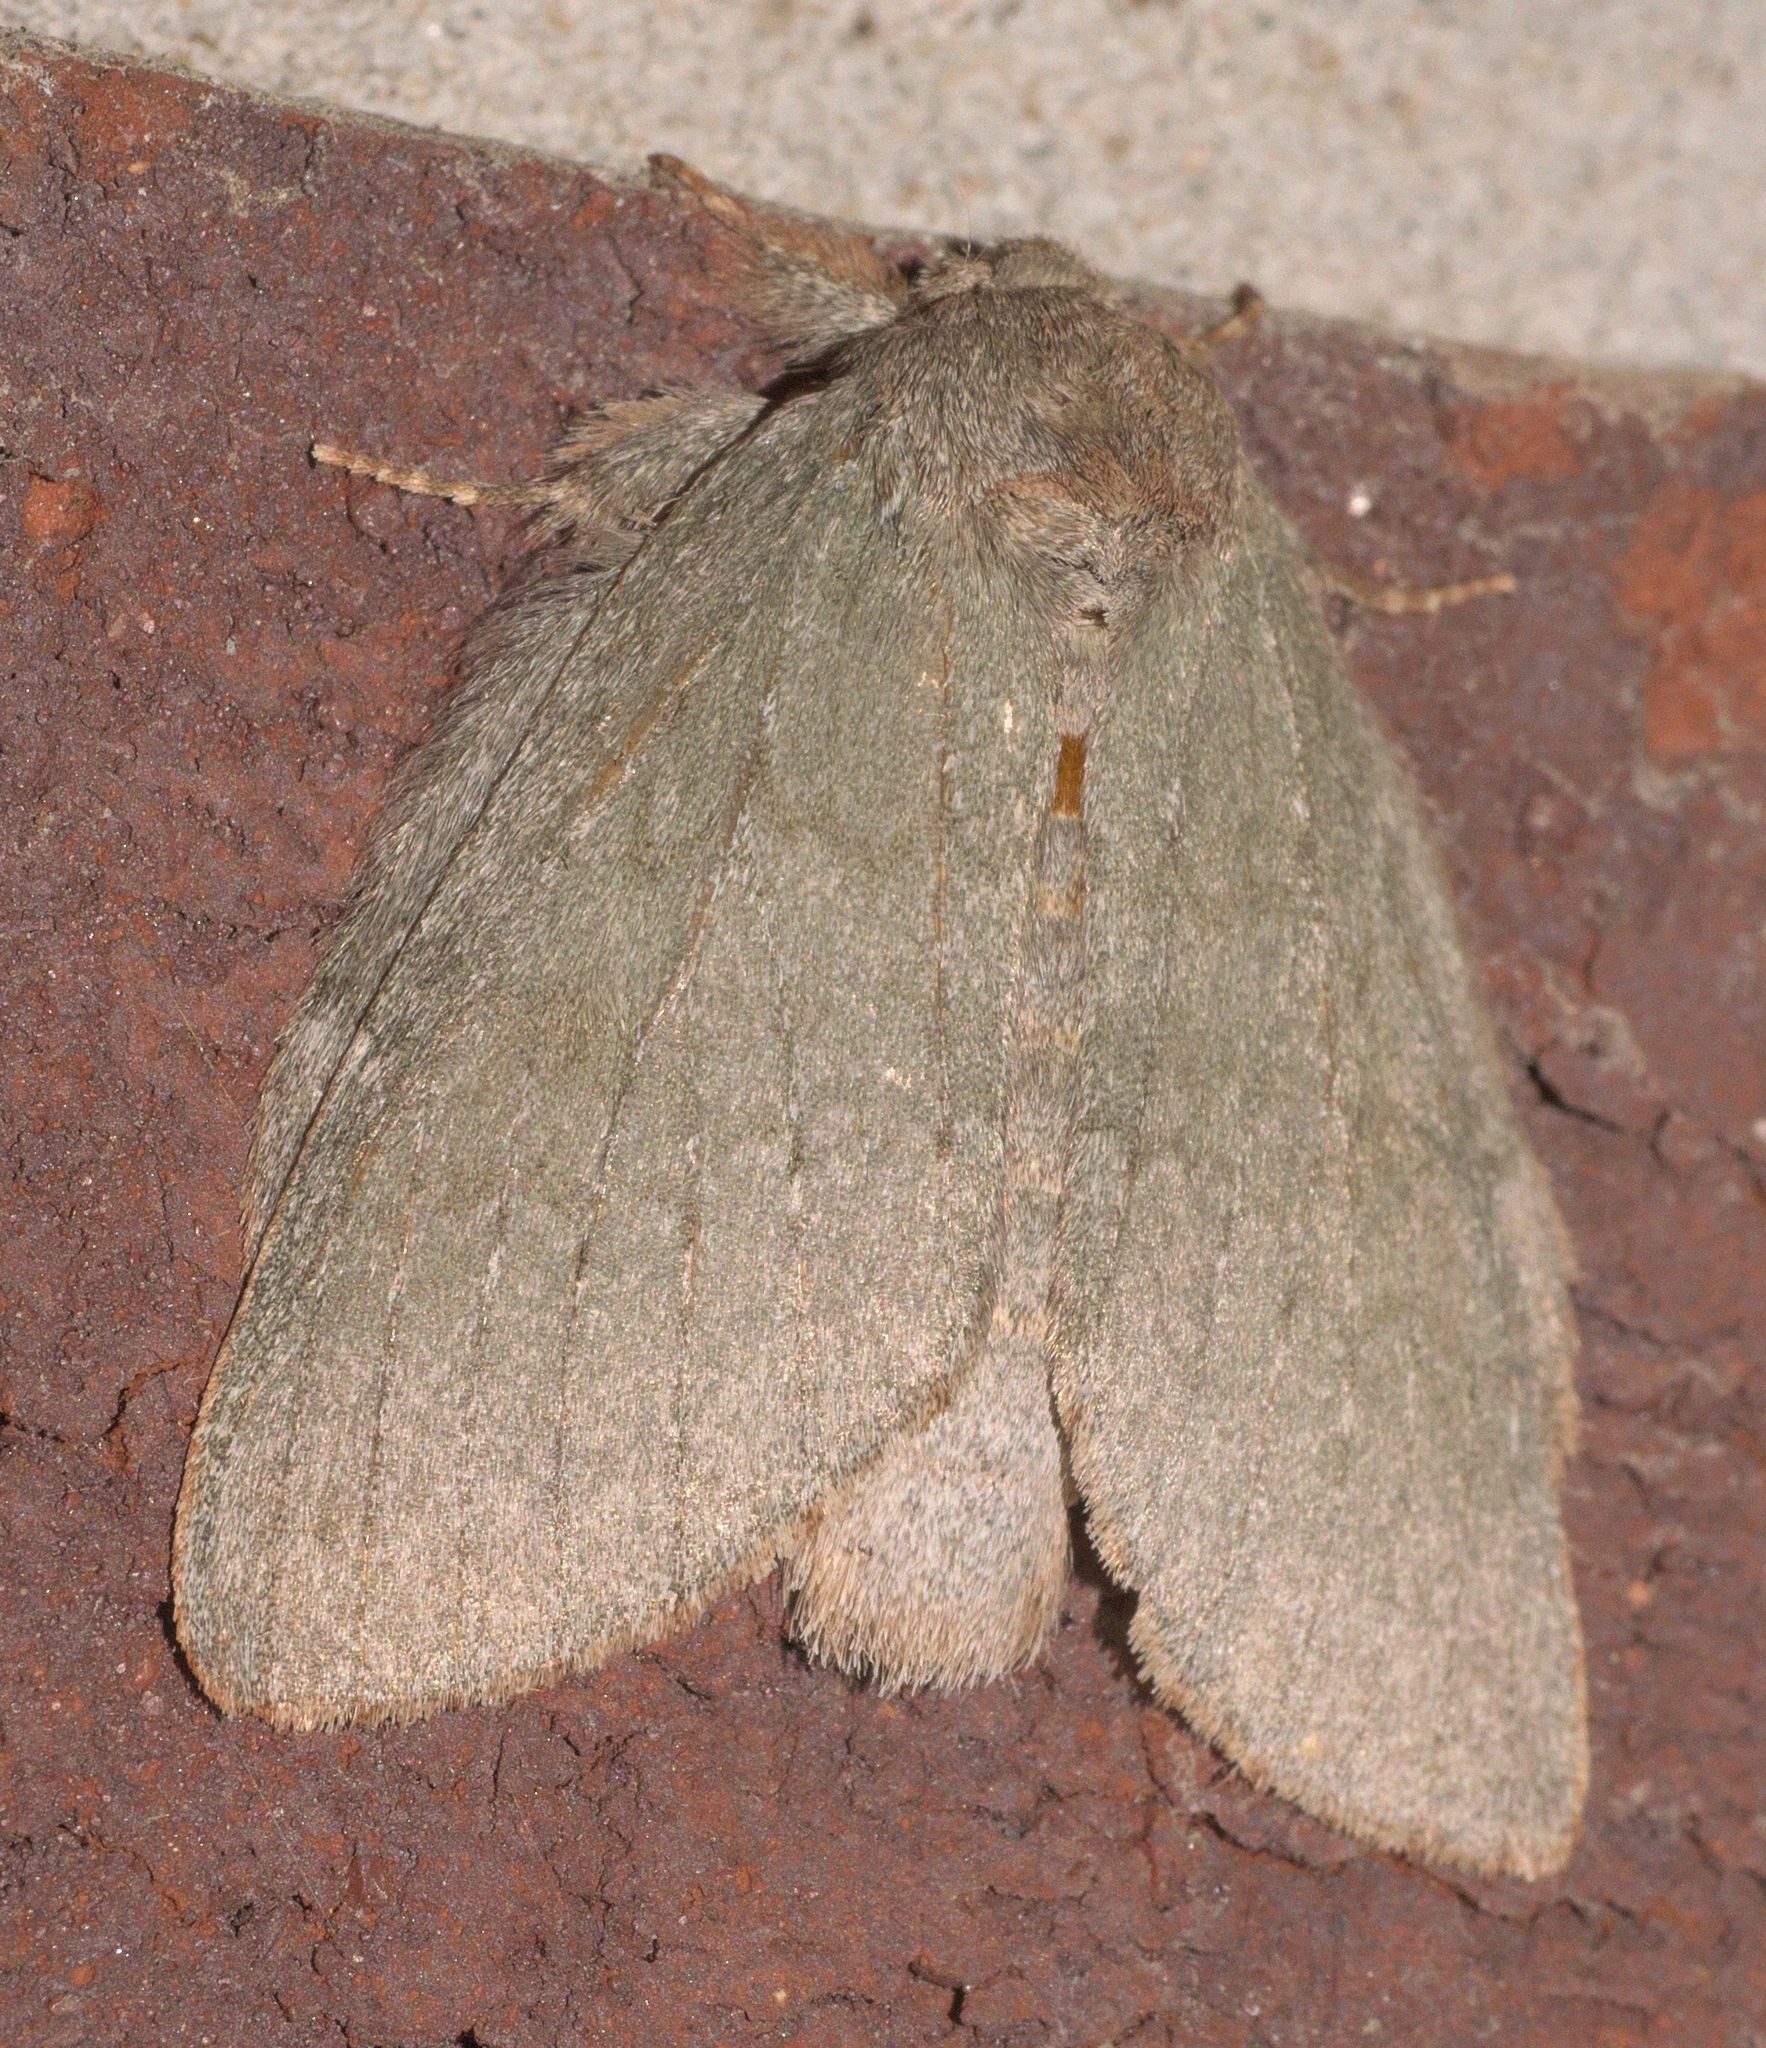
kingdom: Animalia
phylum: Arthropoda
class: Insecta
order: Lepidoptera
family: Notodontidae
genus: Misogada
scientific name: Misogada unicolor
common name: Drab prominent
